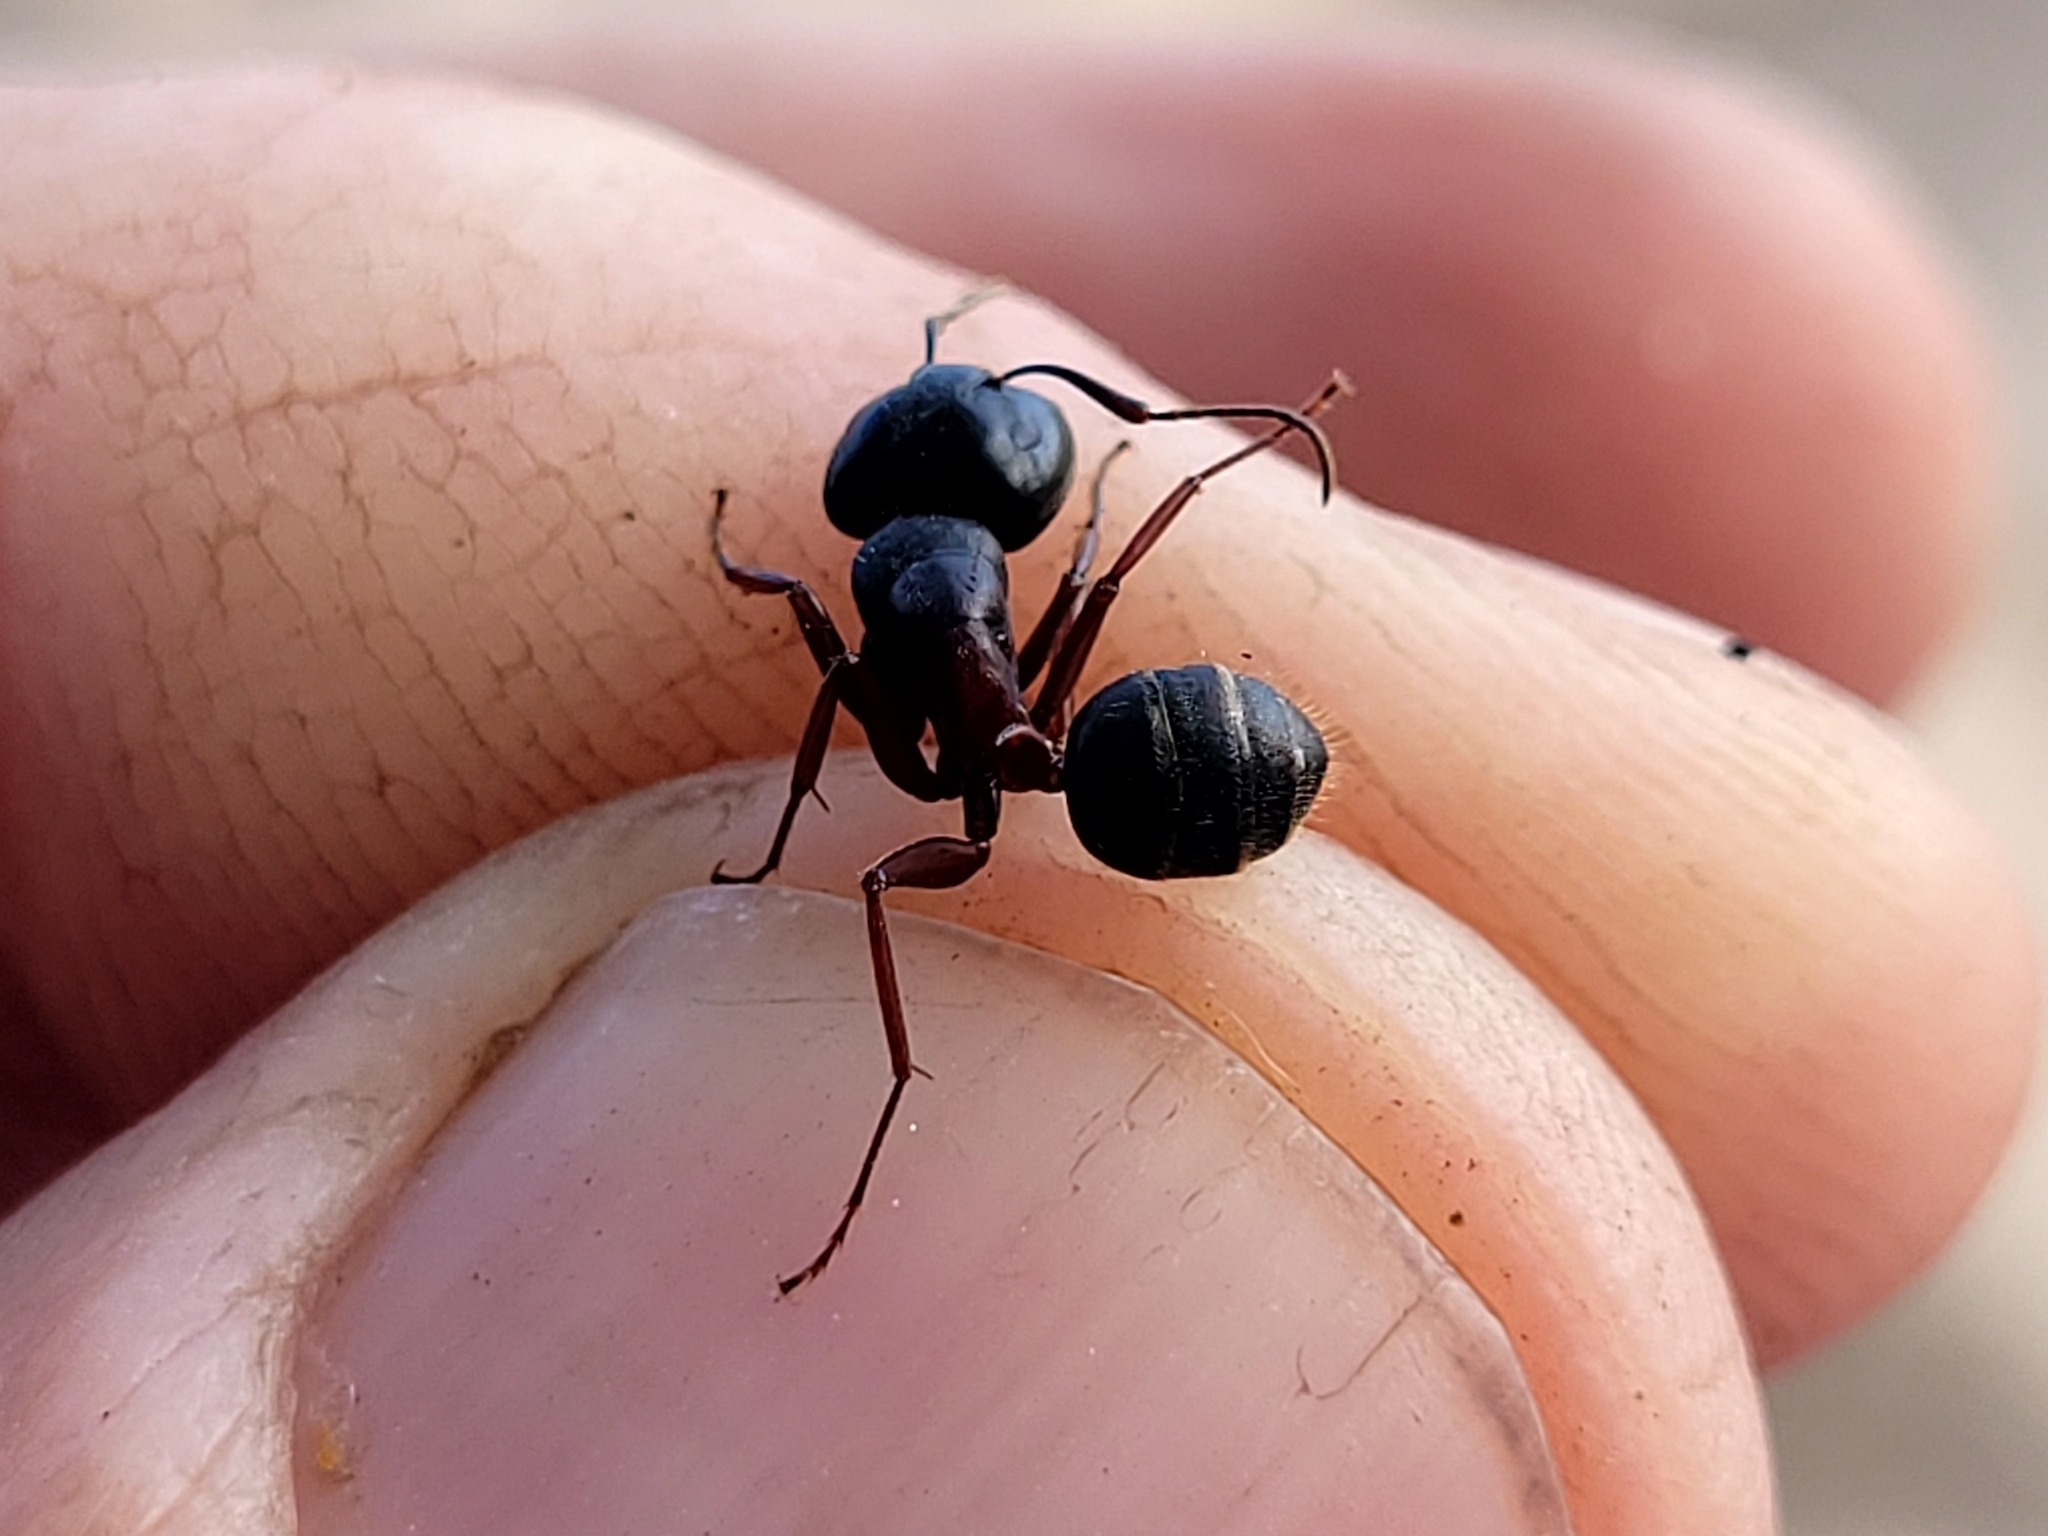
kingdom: Animalia
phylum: Arthropoda
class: Insecta
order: Hymenoptera
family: Formicidae
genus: Camponotus
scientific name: Camponotus herculeanus
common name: Hercules ant
